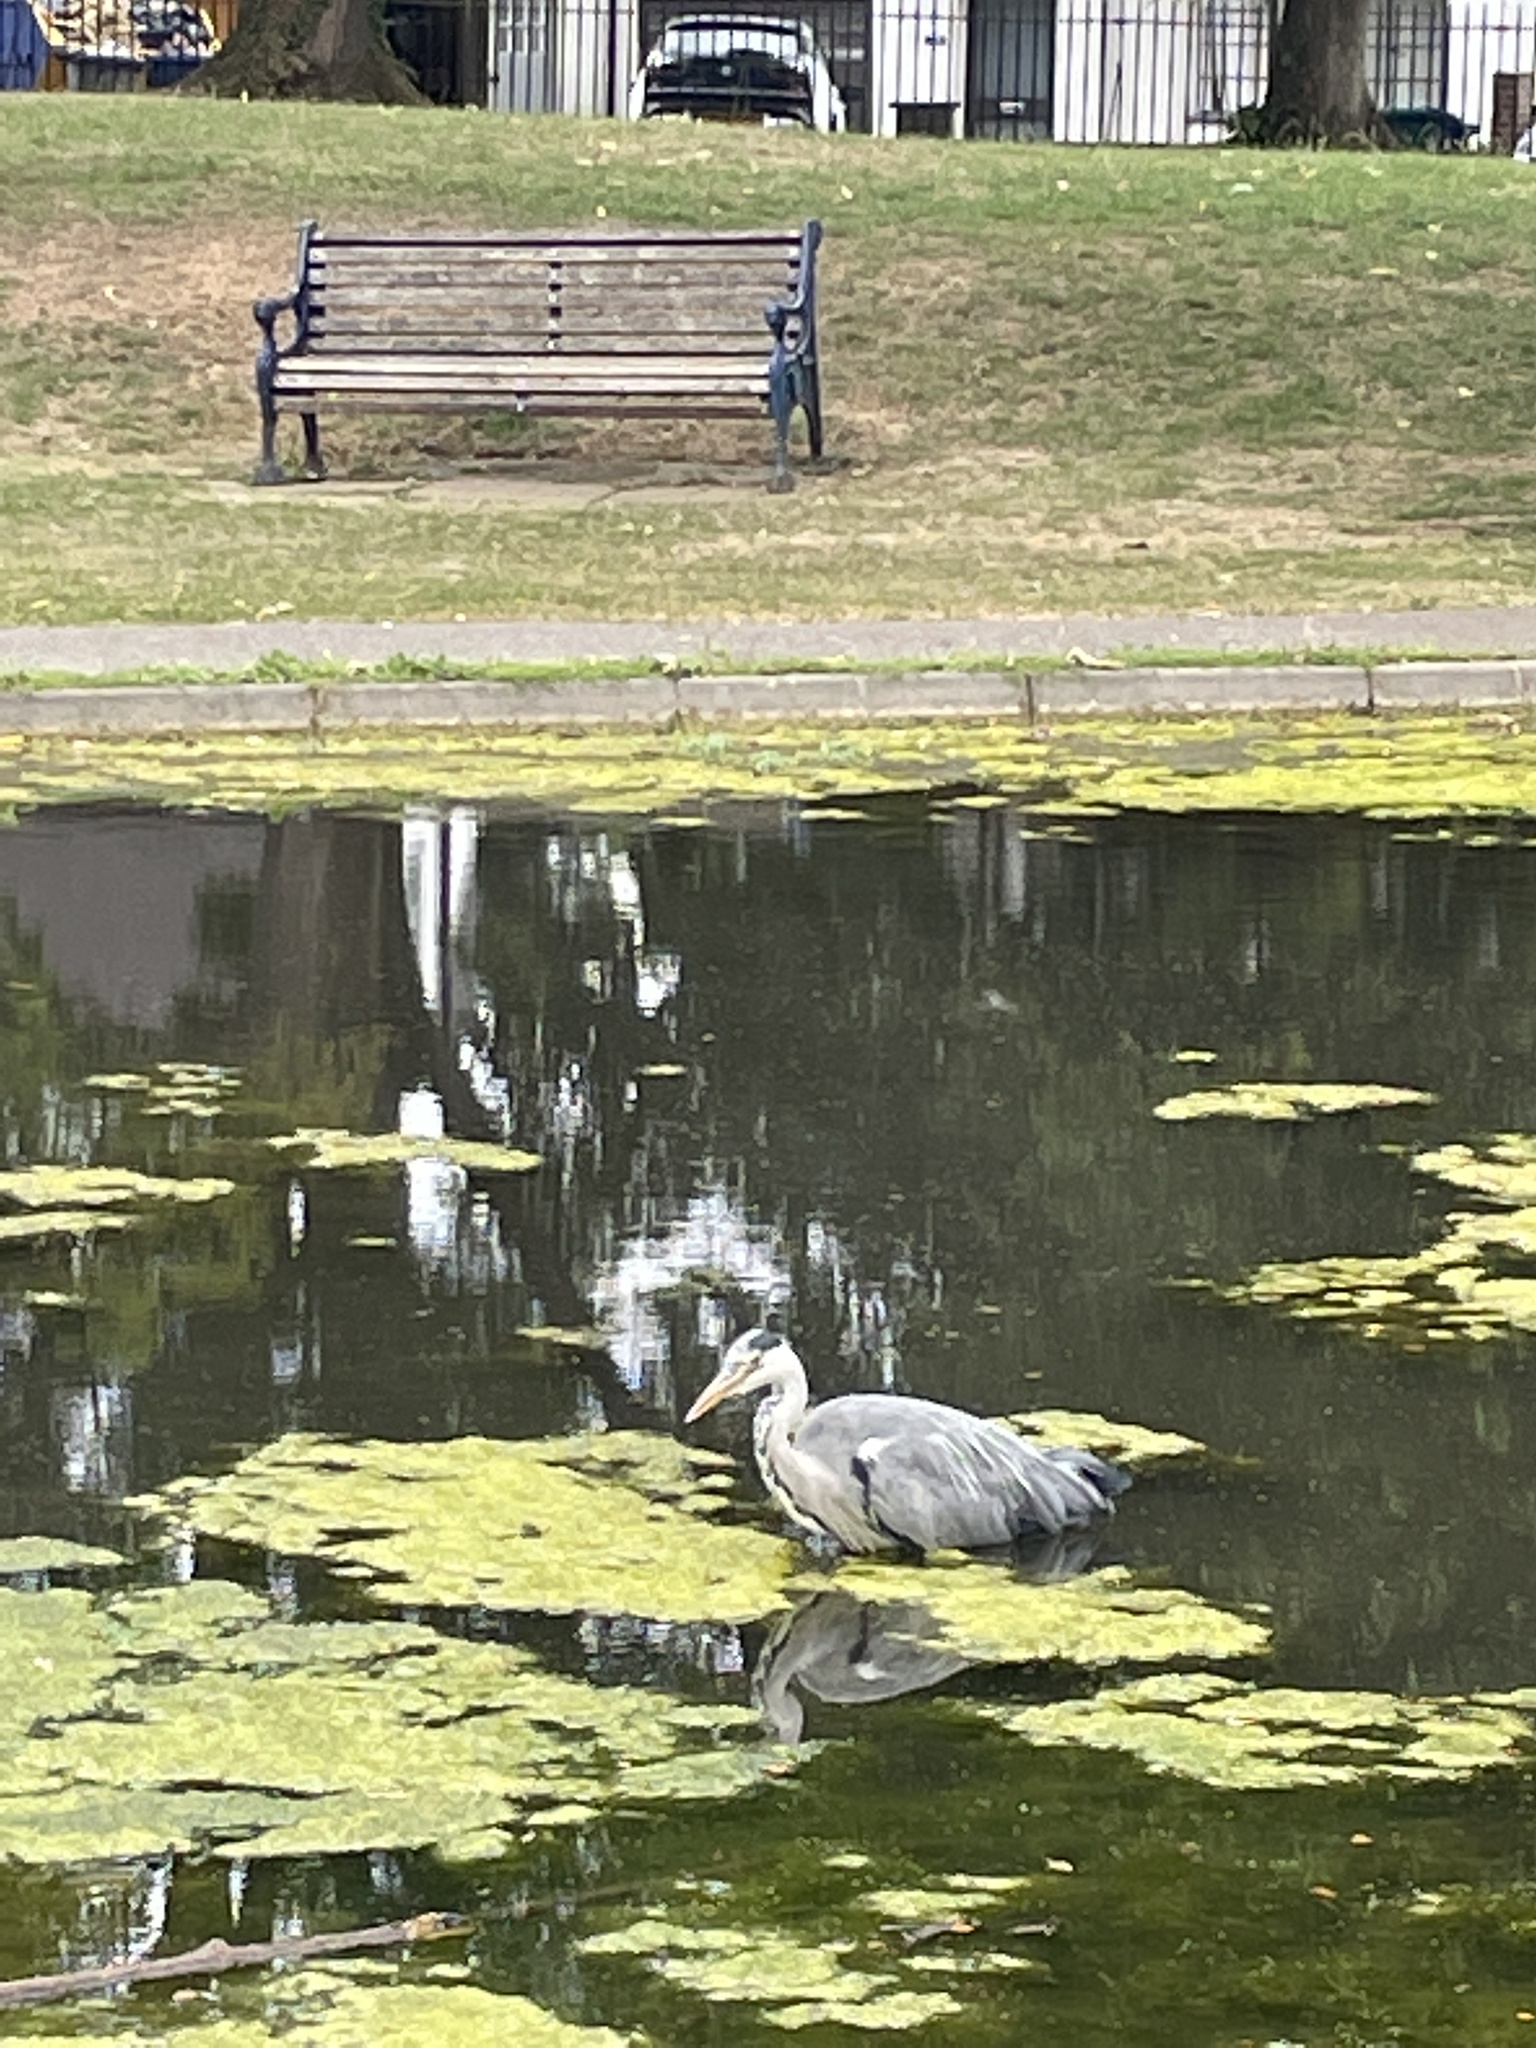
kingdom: Animalia
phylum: Chordata
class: Aves
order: Pelecaniformes
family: Ardeidae
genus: Ardea
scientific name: Ardea cinerea
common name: Grey heron
